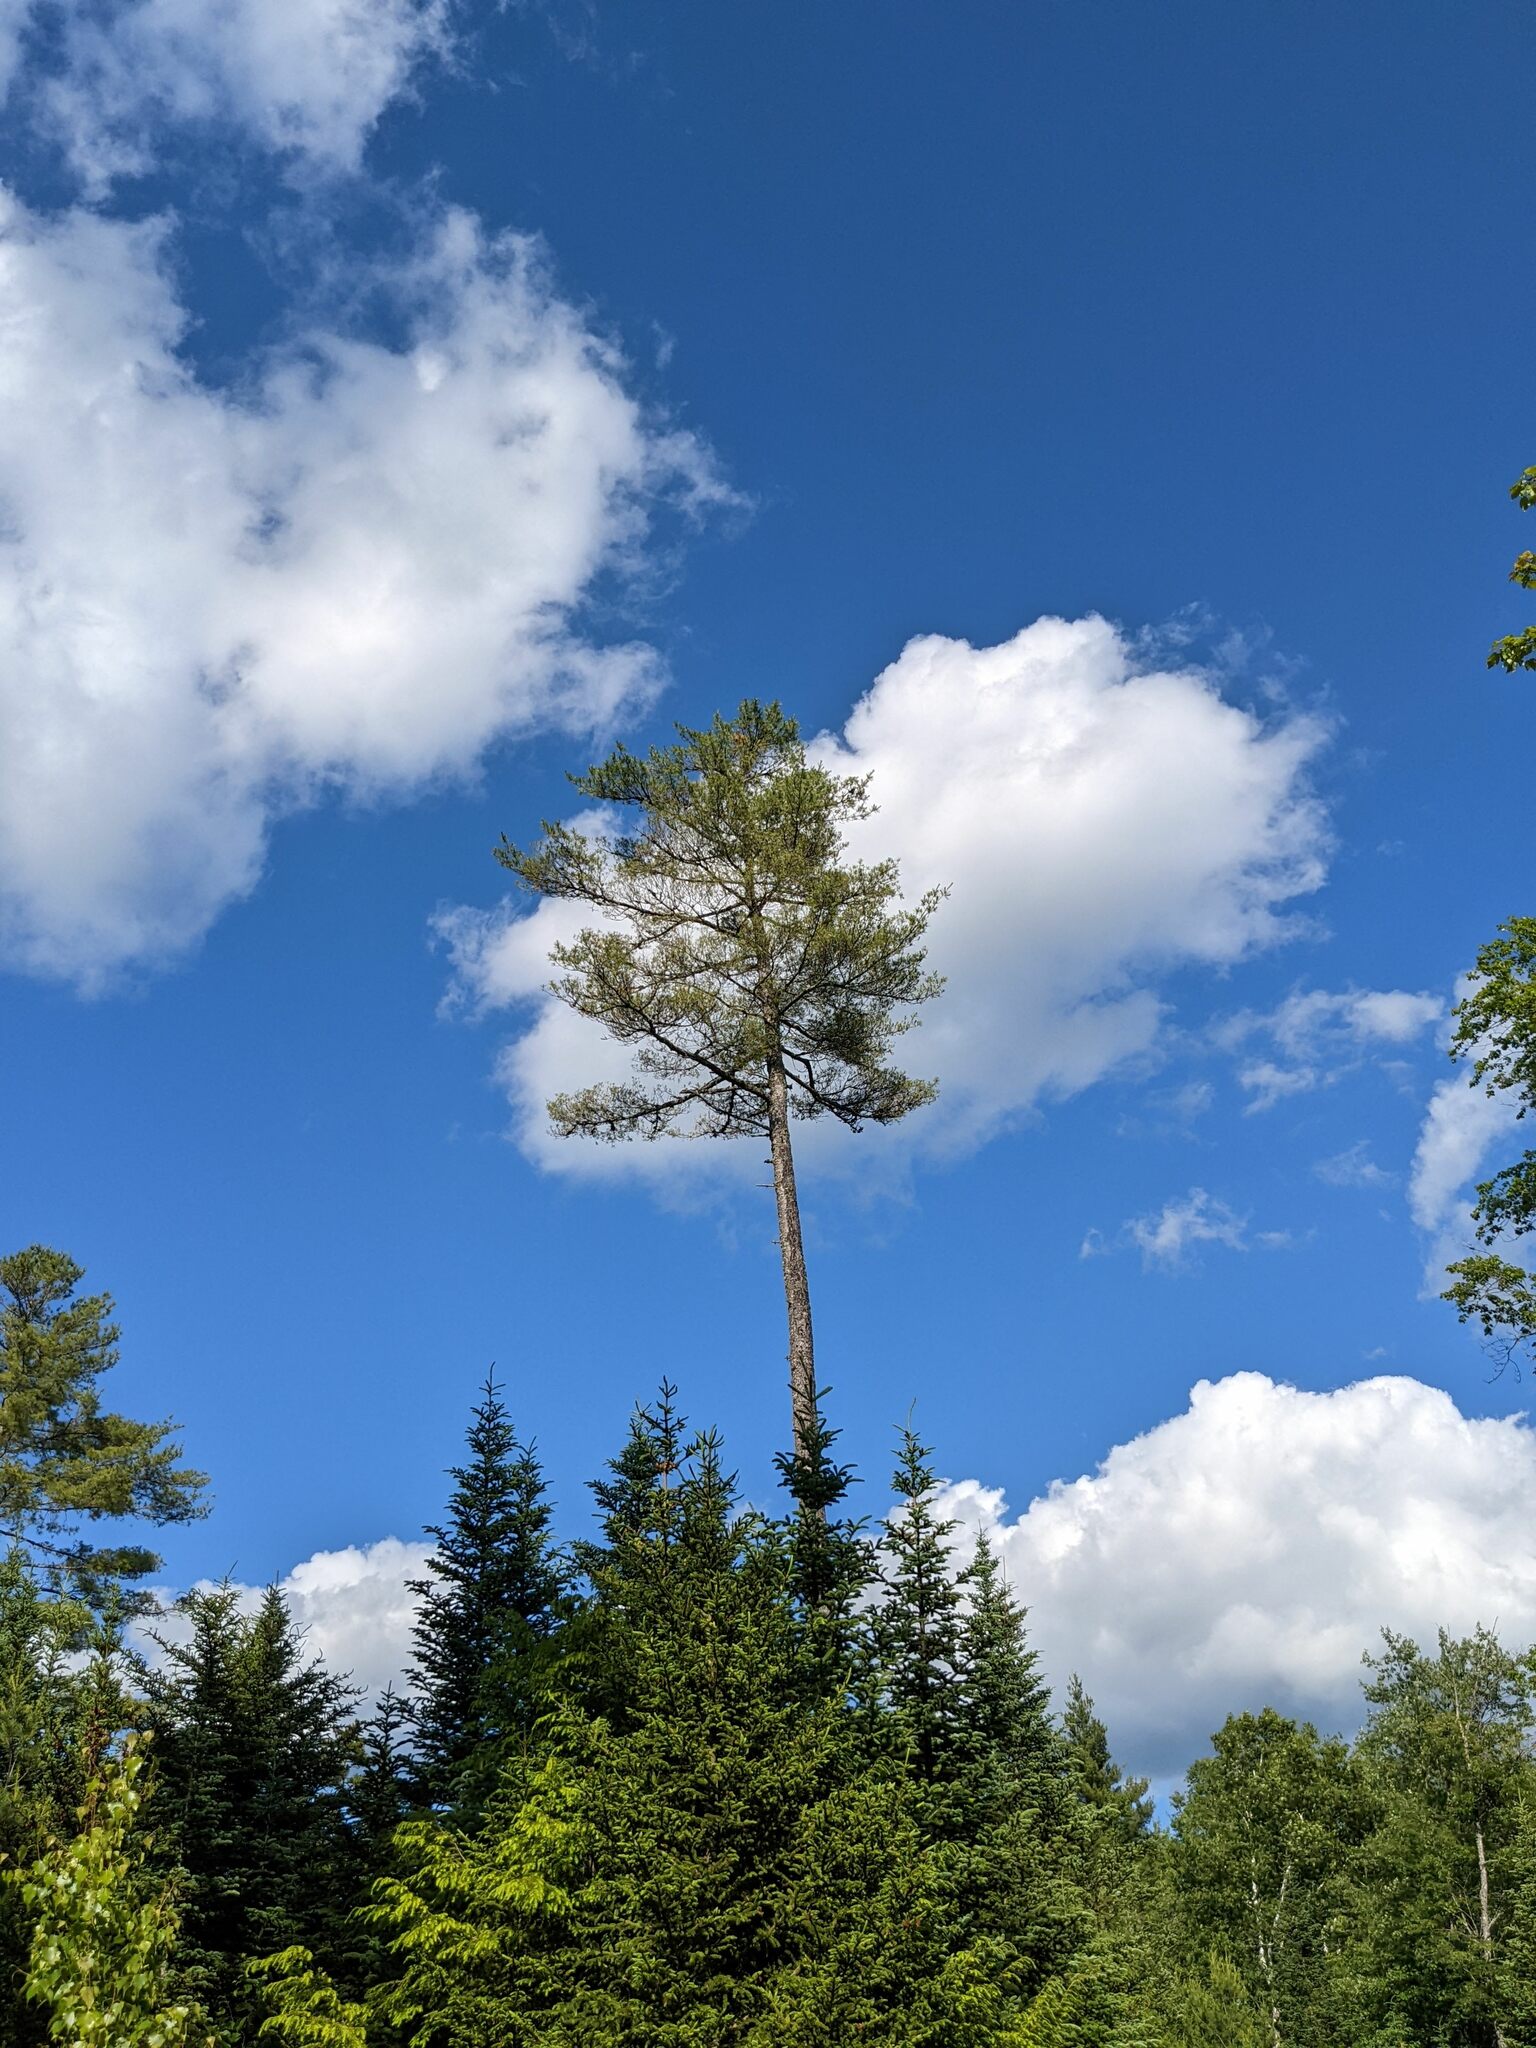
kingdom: Plantae
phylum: Tracheophyta
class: Pinopsida
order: Pinales
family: Pinaceae
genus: Pinus
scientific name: Pinus strobus
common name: Weymouth pine
